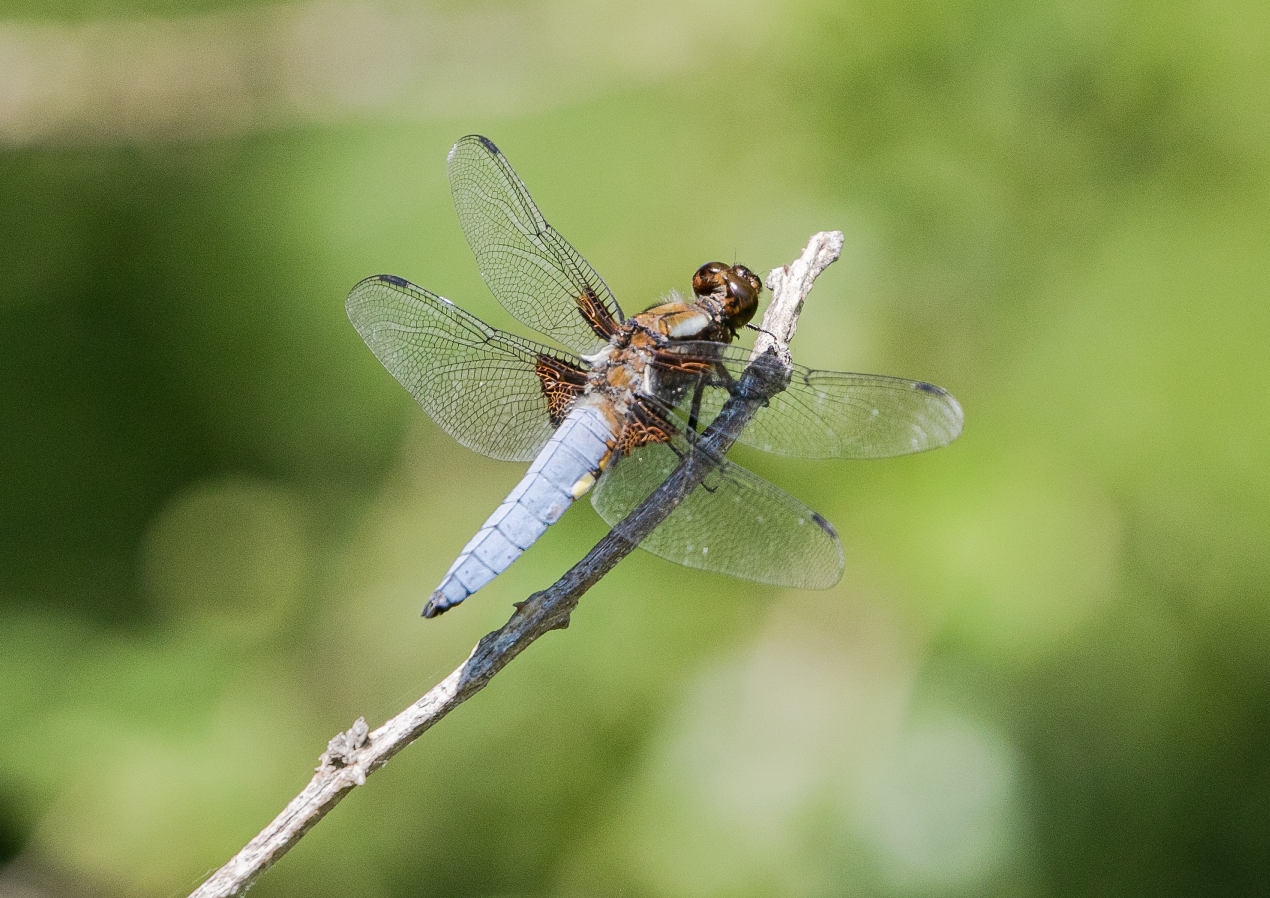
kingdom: Animalia
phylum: Arthropoda
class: Insecta
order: Odonata
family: Libellulidae
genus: Libellula
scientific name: Libellula depressa
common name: Broad-bodied chaser
